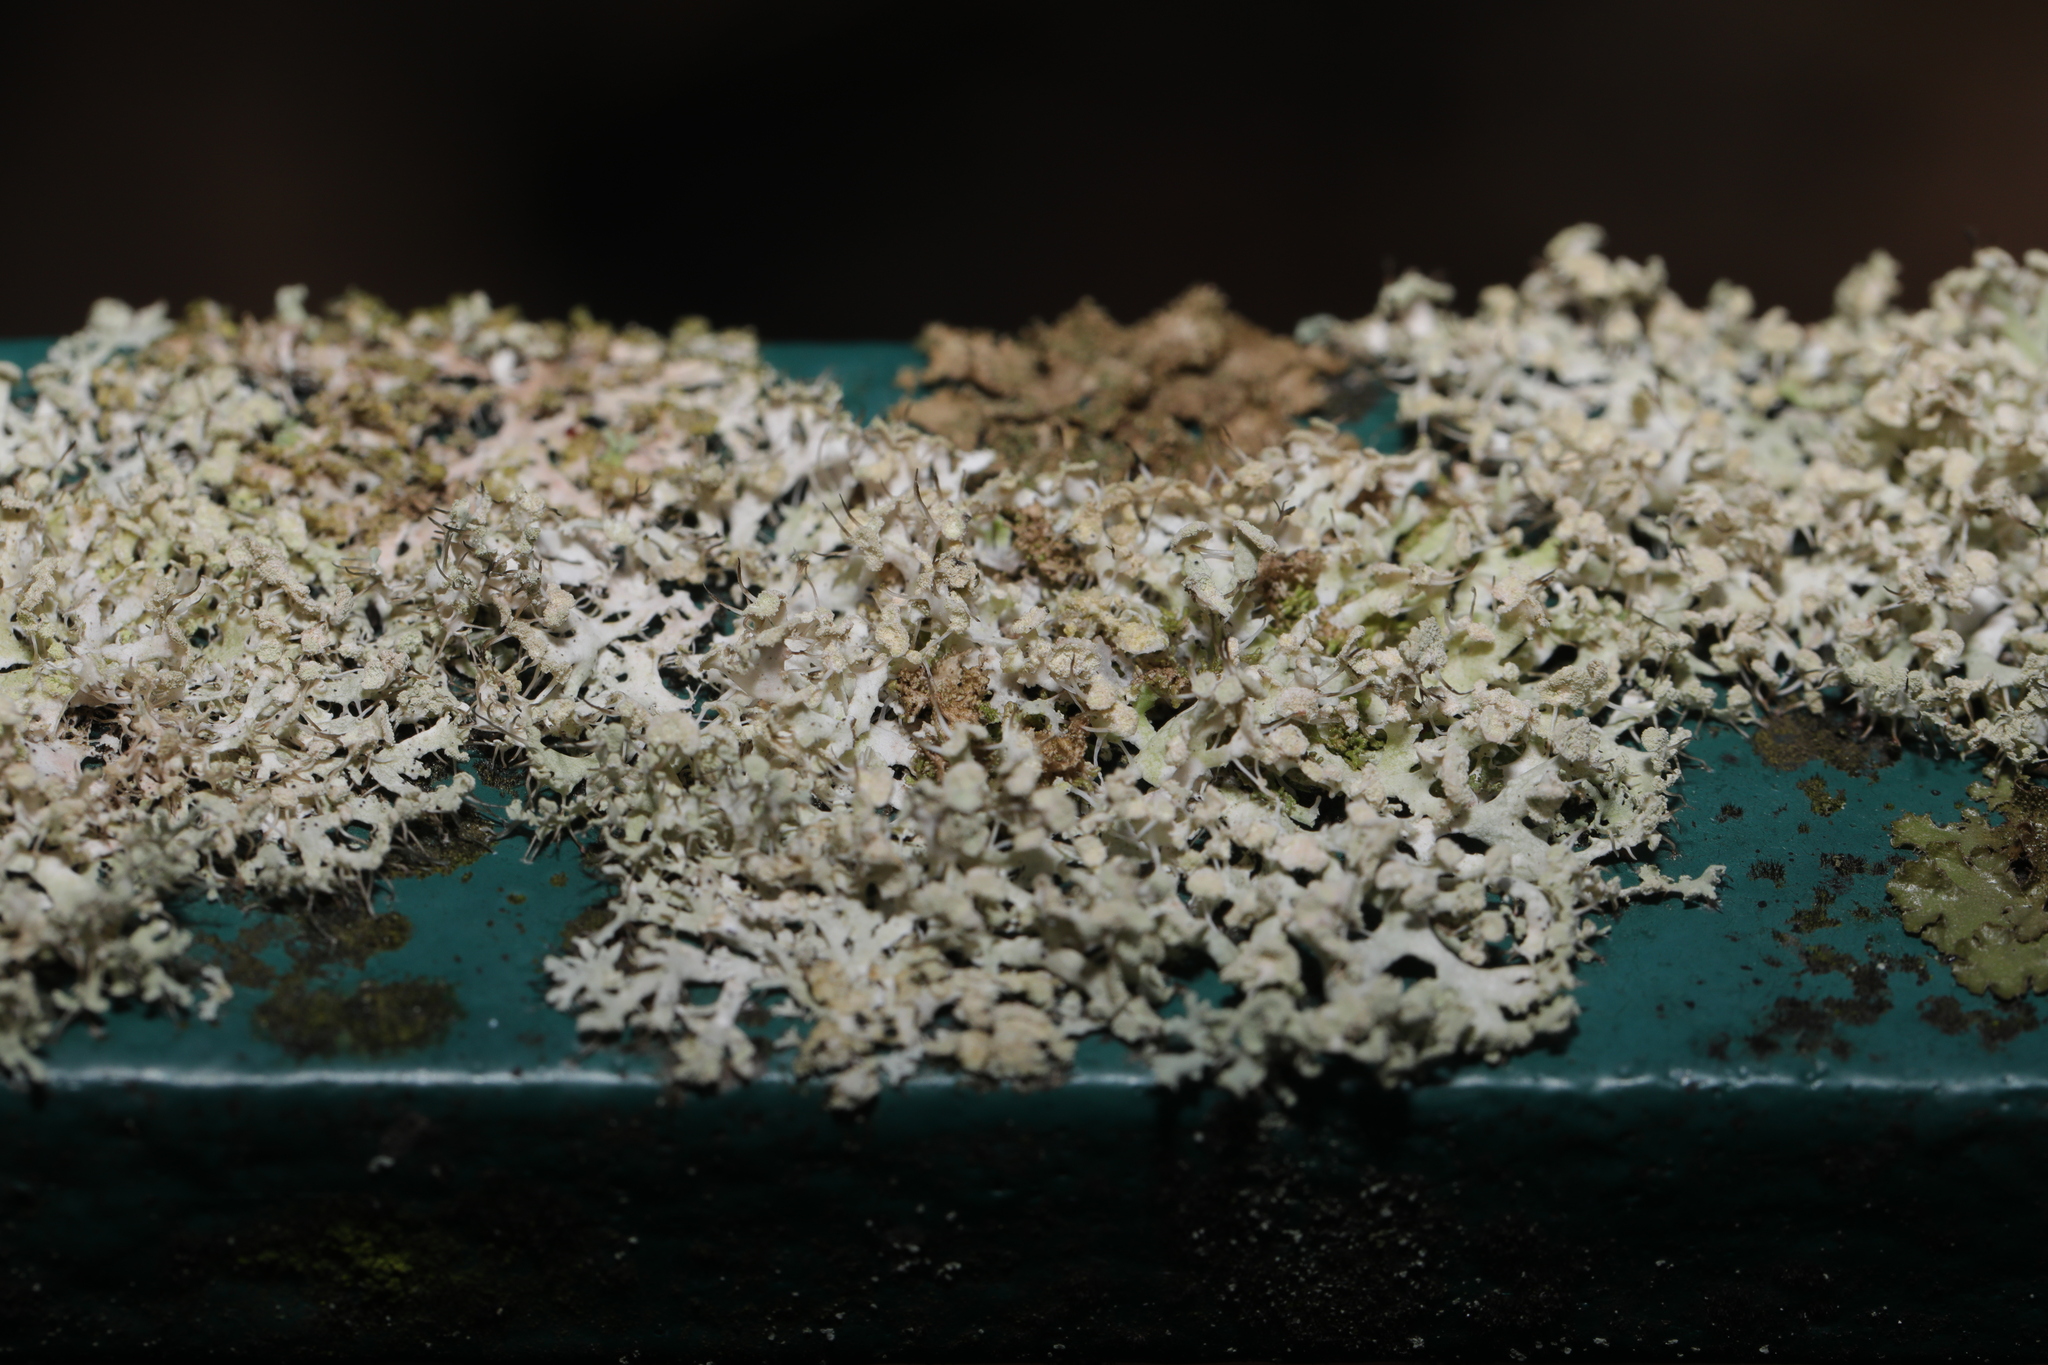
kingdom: Fungi
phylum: Ascomycota
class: Lecanoromycetes
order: Caliciales
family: Physciaceae
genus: Physcia
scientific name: Physcia tenella
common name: Fringed rosette lichen
